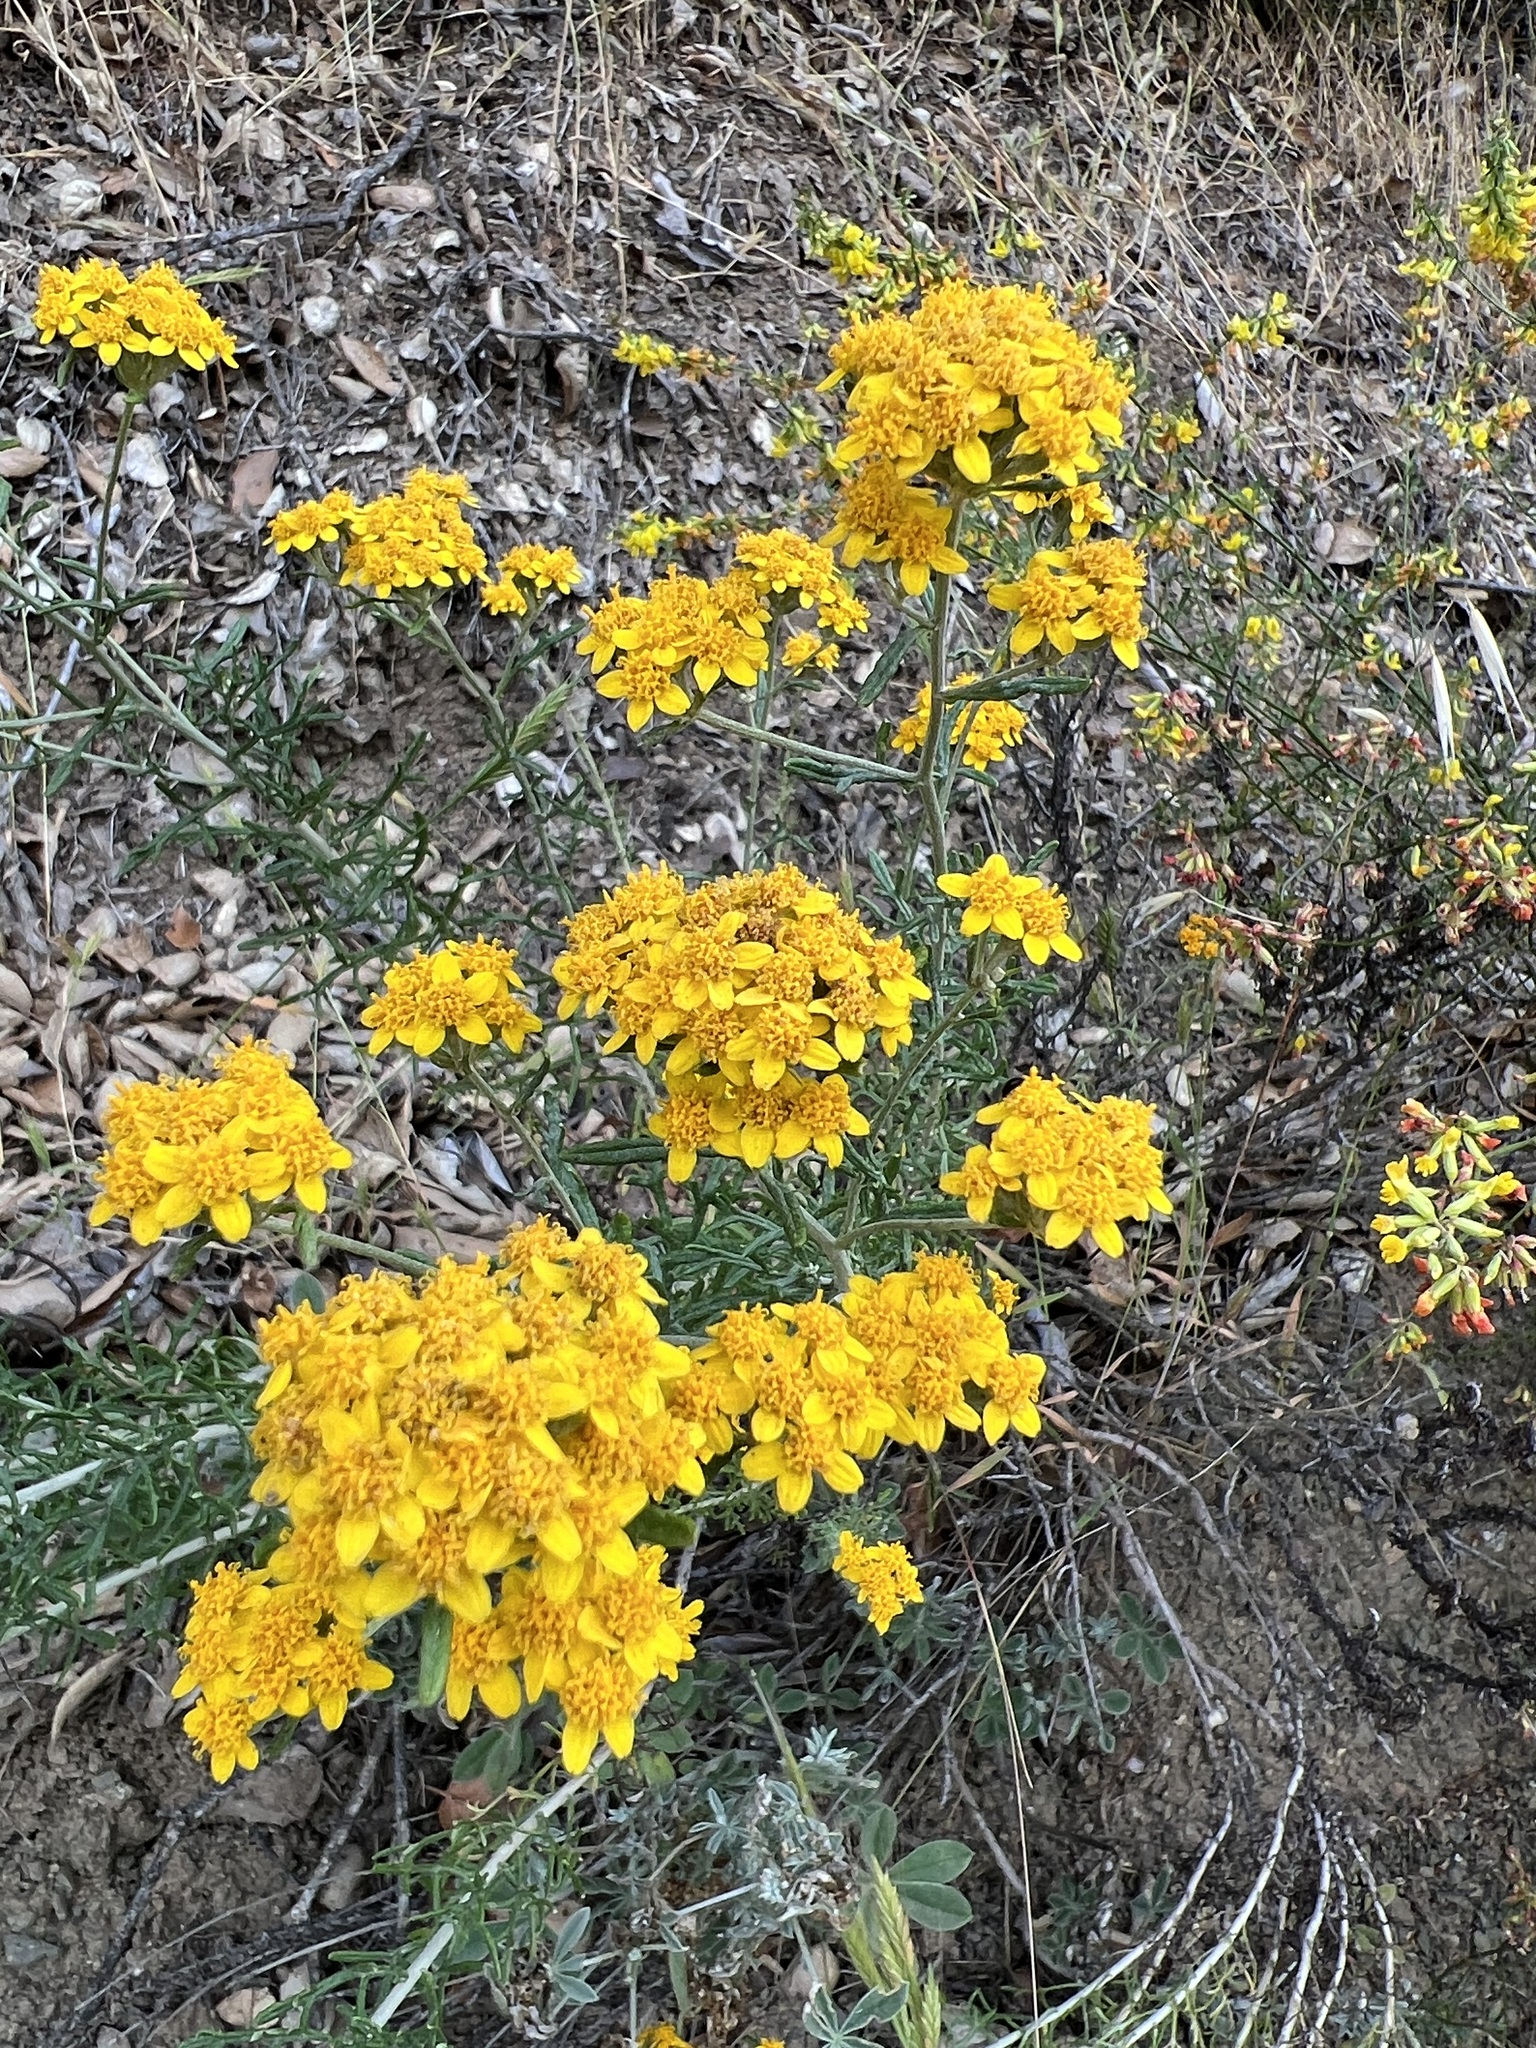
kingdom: Plantae
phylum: Tracheophyta
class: Magnoliopsida
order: Asterales
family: Asteraceae
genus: Eriophyllum
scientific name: Eriophyllum confertiflorum
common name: Golden-yarrow
